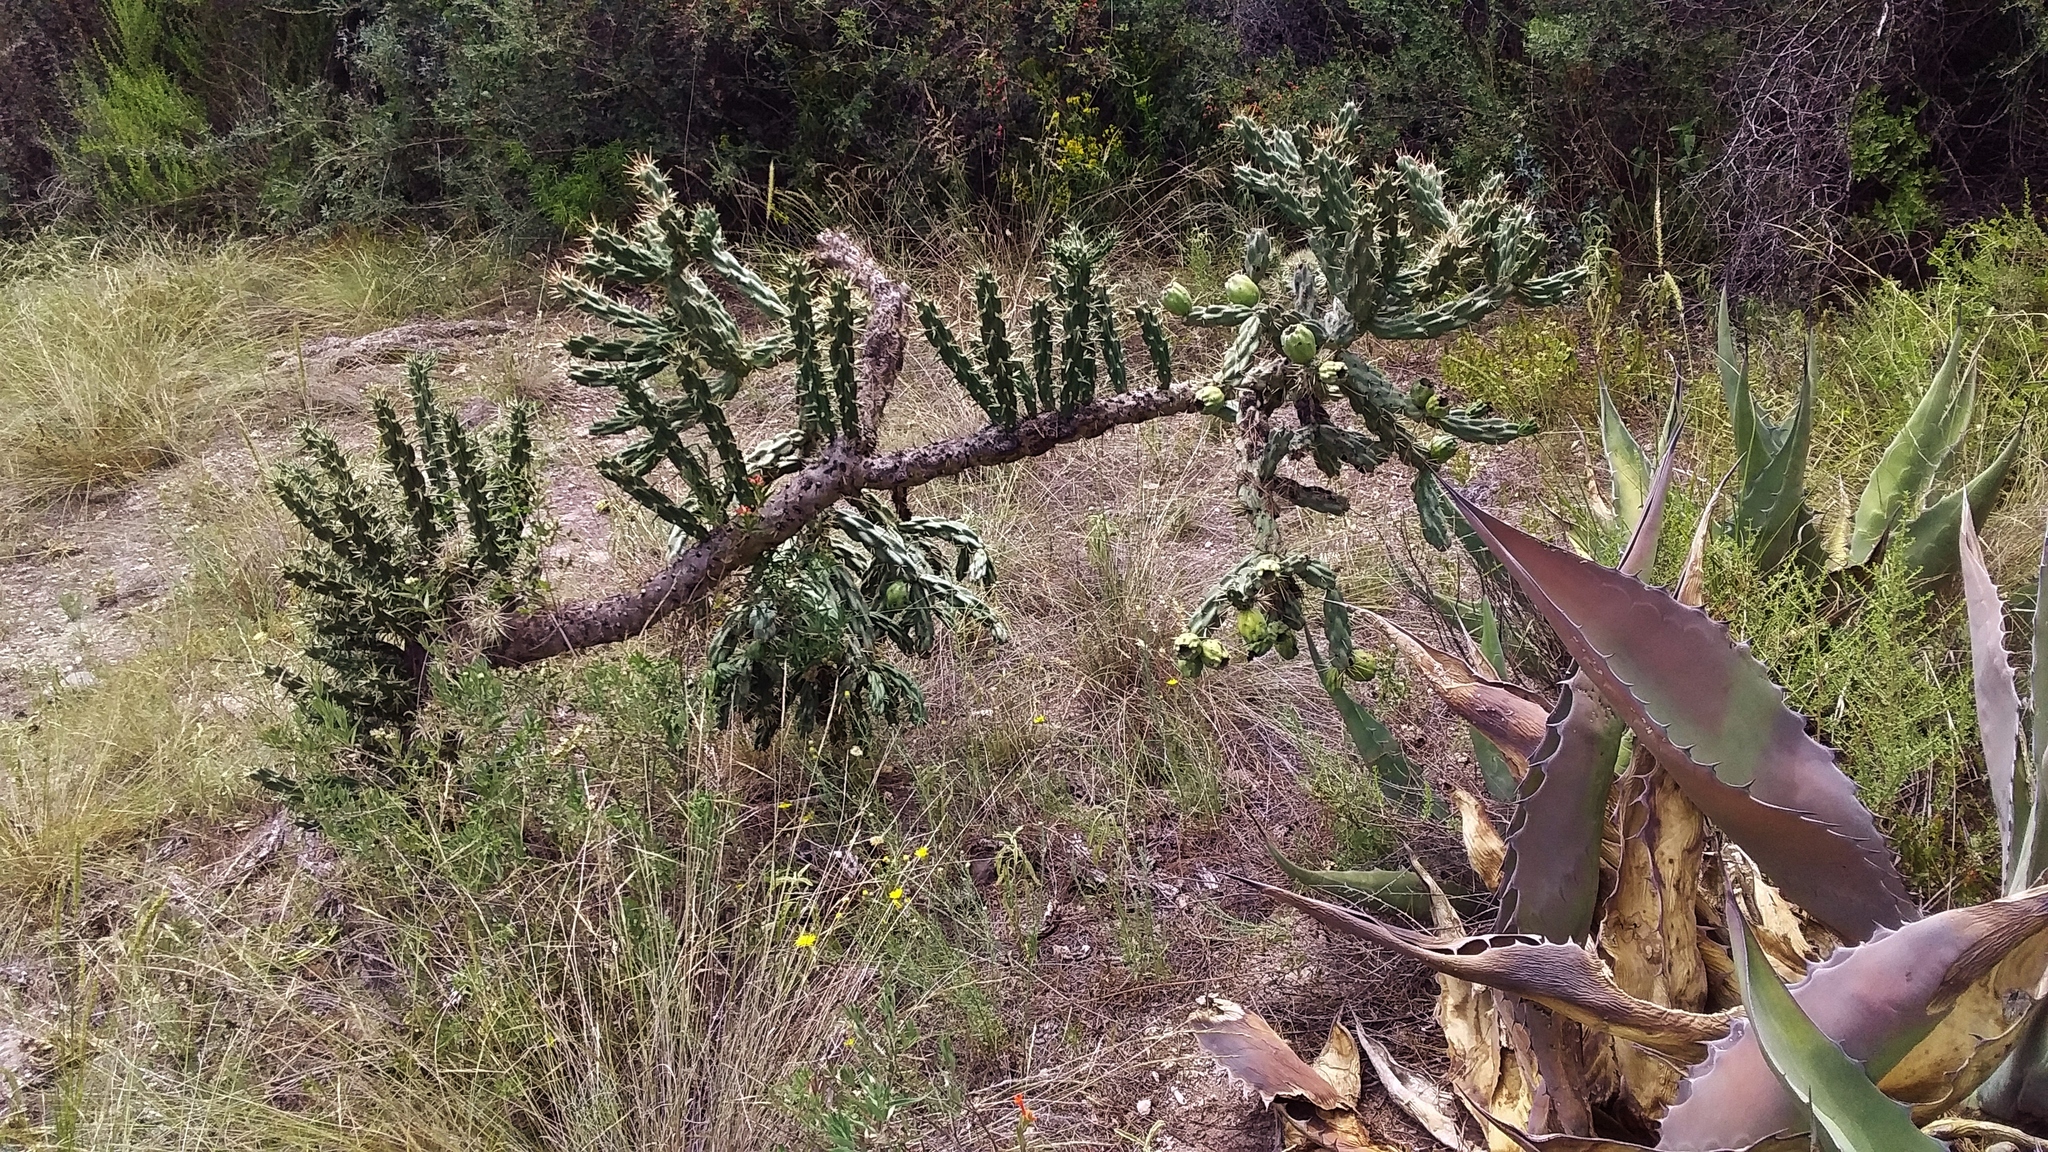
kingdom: Plantae
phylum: Tracheophyta
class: Magnoliopsida
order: Caryophyllales
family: Cactaceae
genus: Cylindropuntia
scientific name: Cylindropuntia imbricata
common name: Candelabrum cactus
